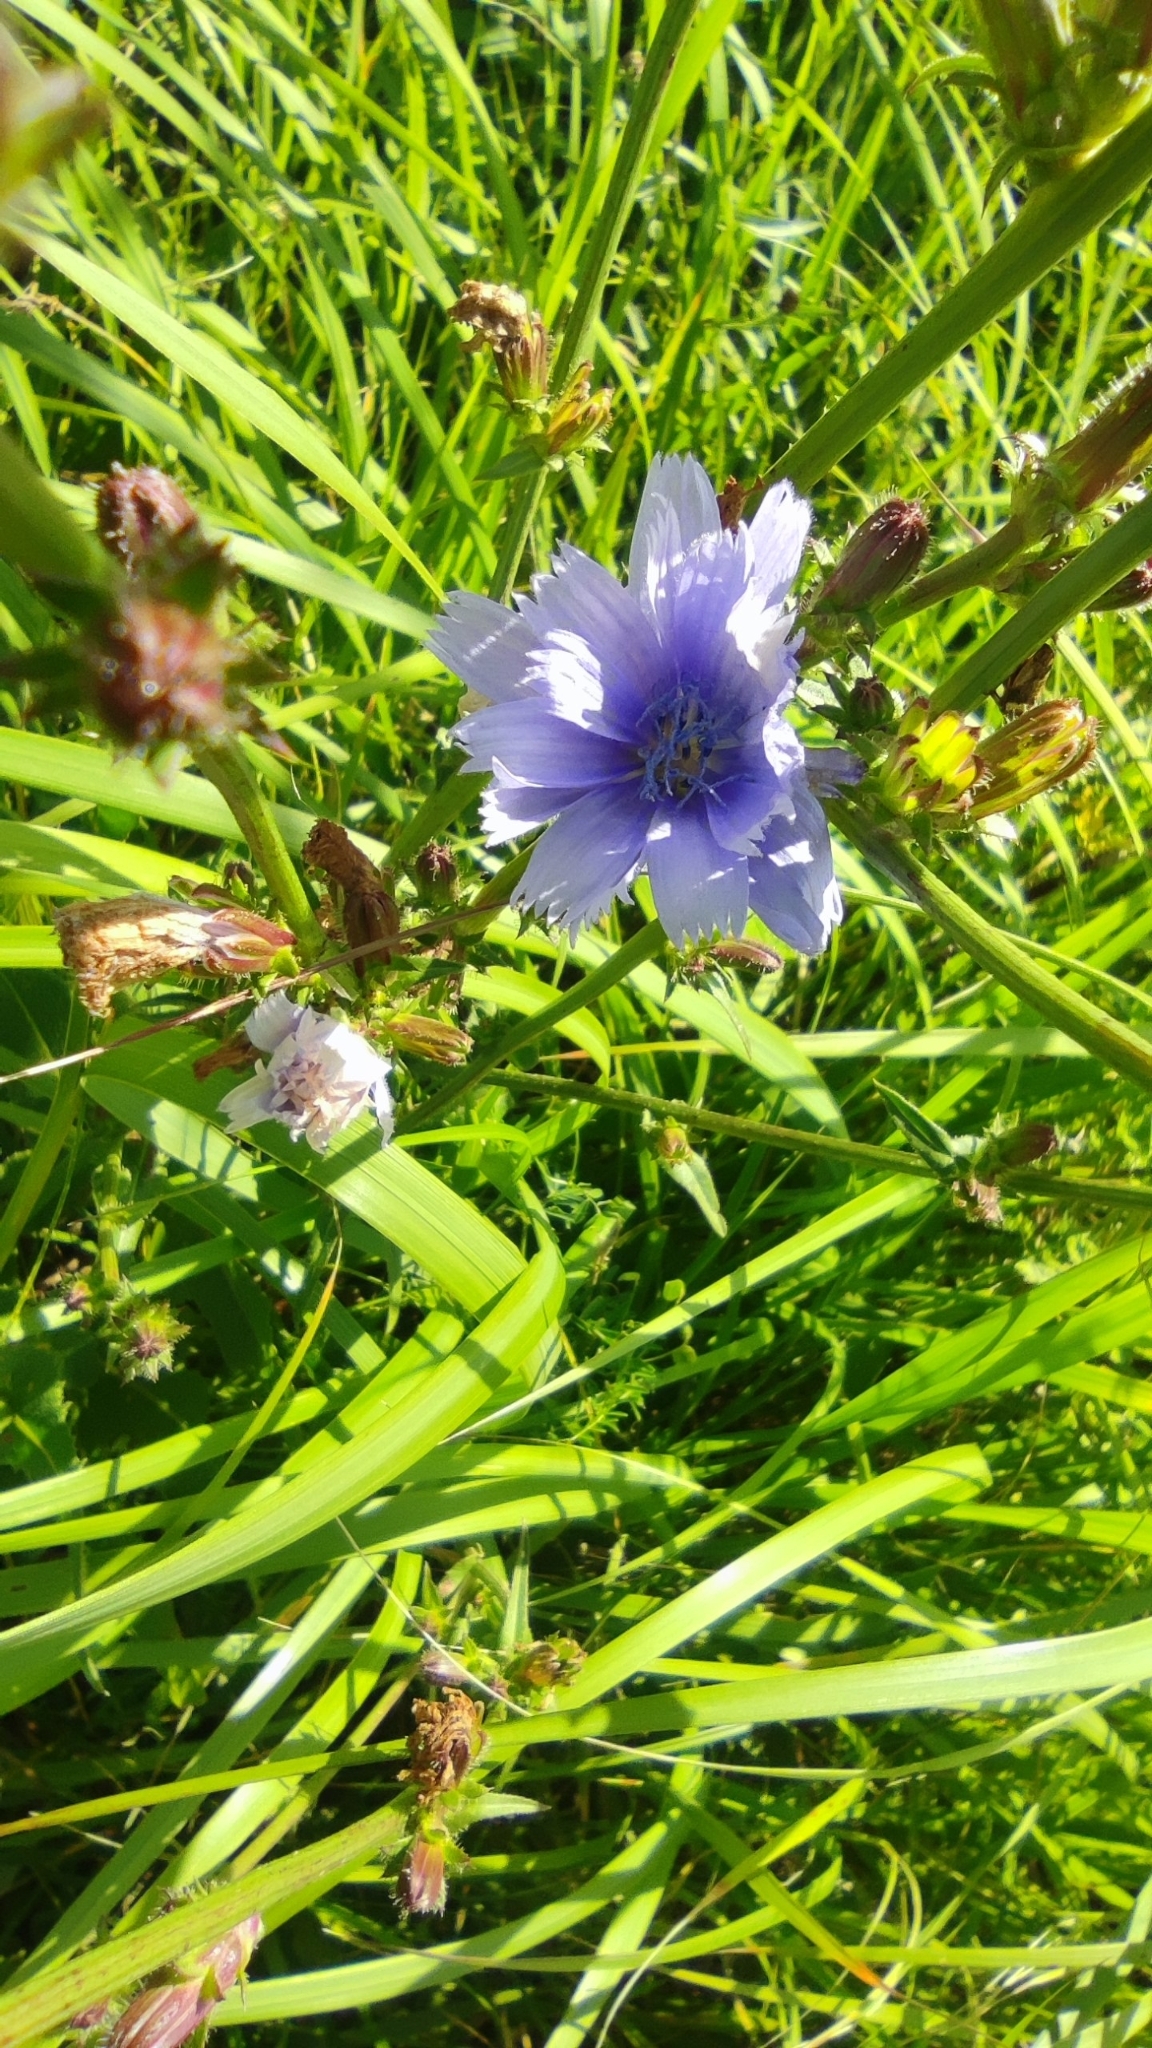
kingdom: Plantae
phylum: Tracheophyta
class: Magnoliopsida
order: Asterales
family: Asteraceae
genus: Cichorium
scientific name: Cichorium intybus
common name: Chicory
